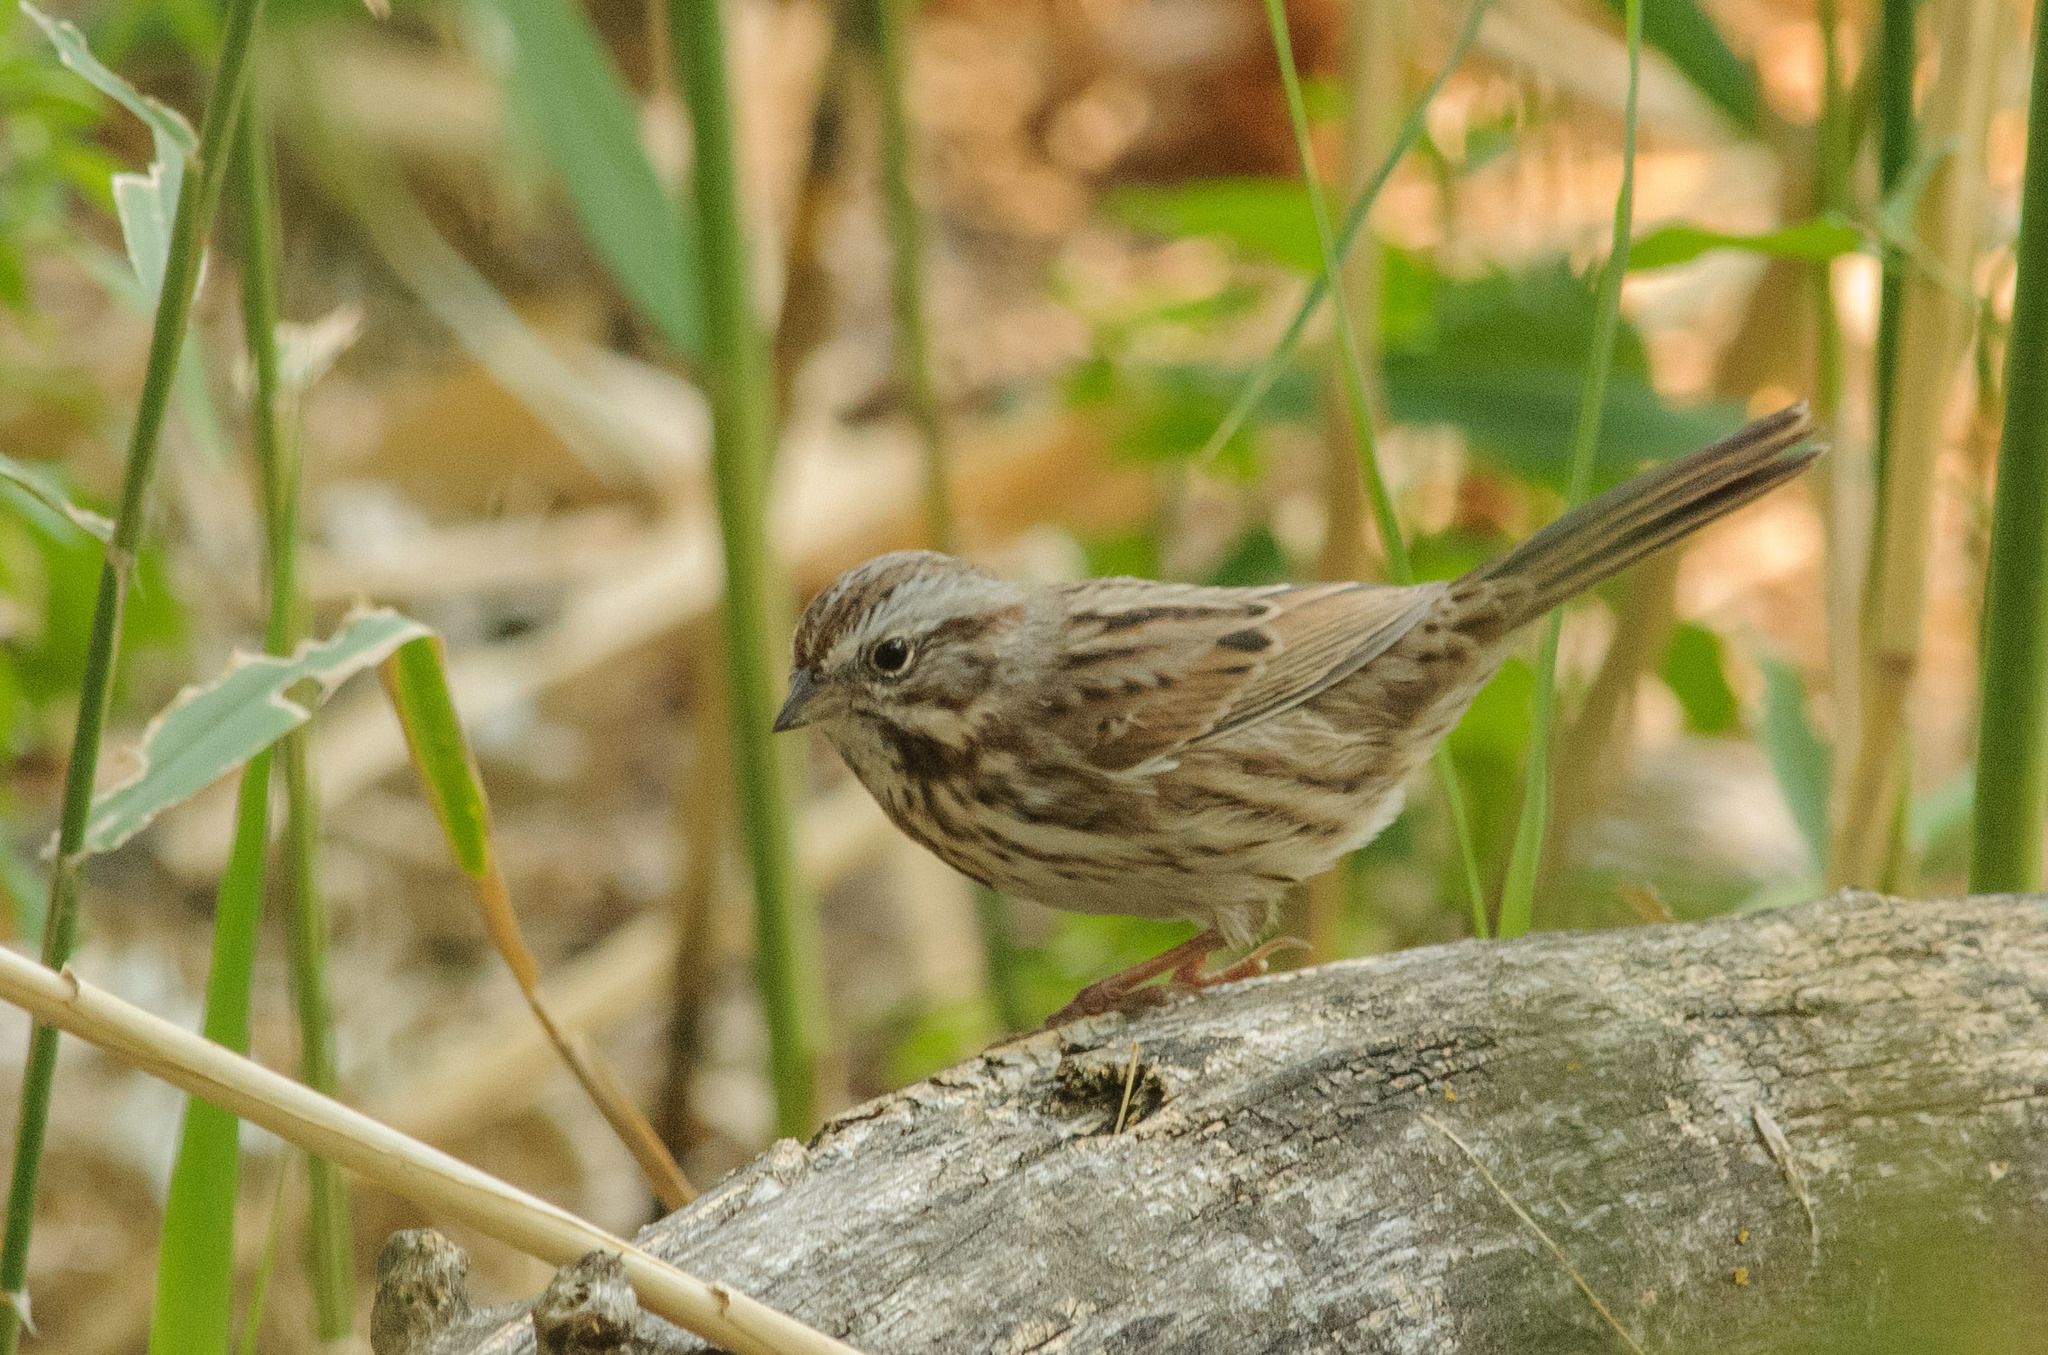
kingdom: Animalia
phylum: Chordata
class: Aves
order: Passeriformes
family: Passerellidae
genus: Melospiza
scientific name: Melospiza melodia
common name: Song sparrow
